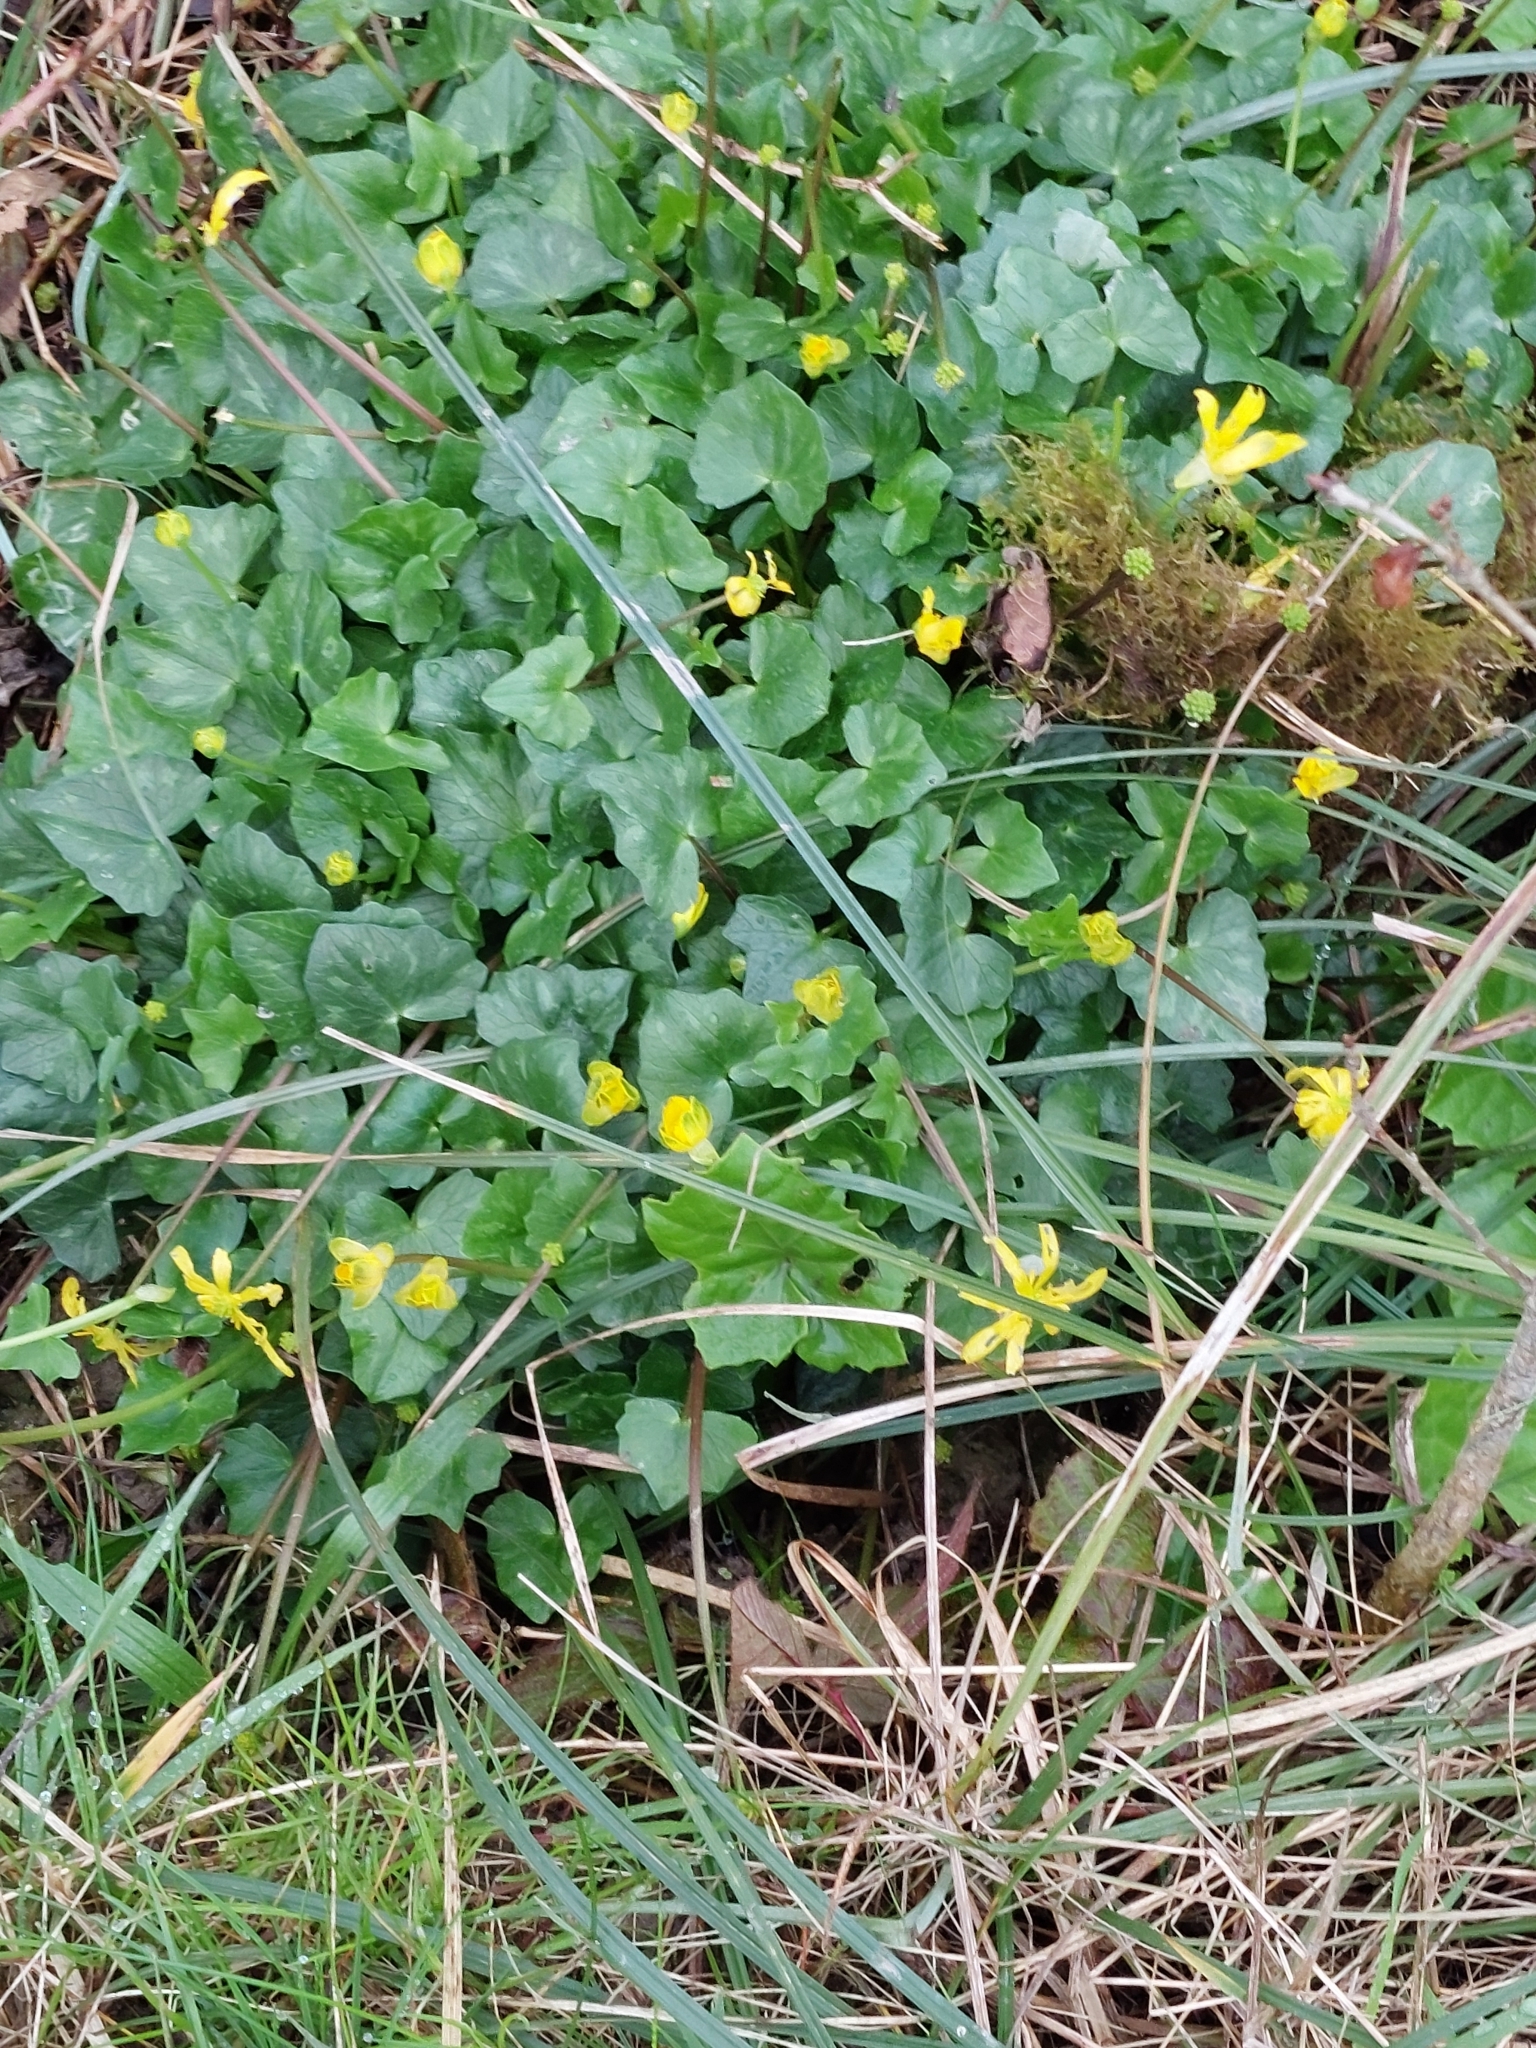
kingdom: Plantae
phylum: Tracheophyta
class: Magnoliopsida
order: Ranunculales
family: Ranunculaceae
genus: Ficaria
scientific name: Ficaria verna
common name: Lesser celandine
